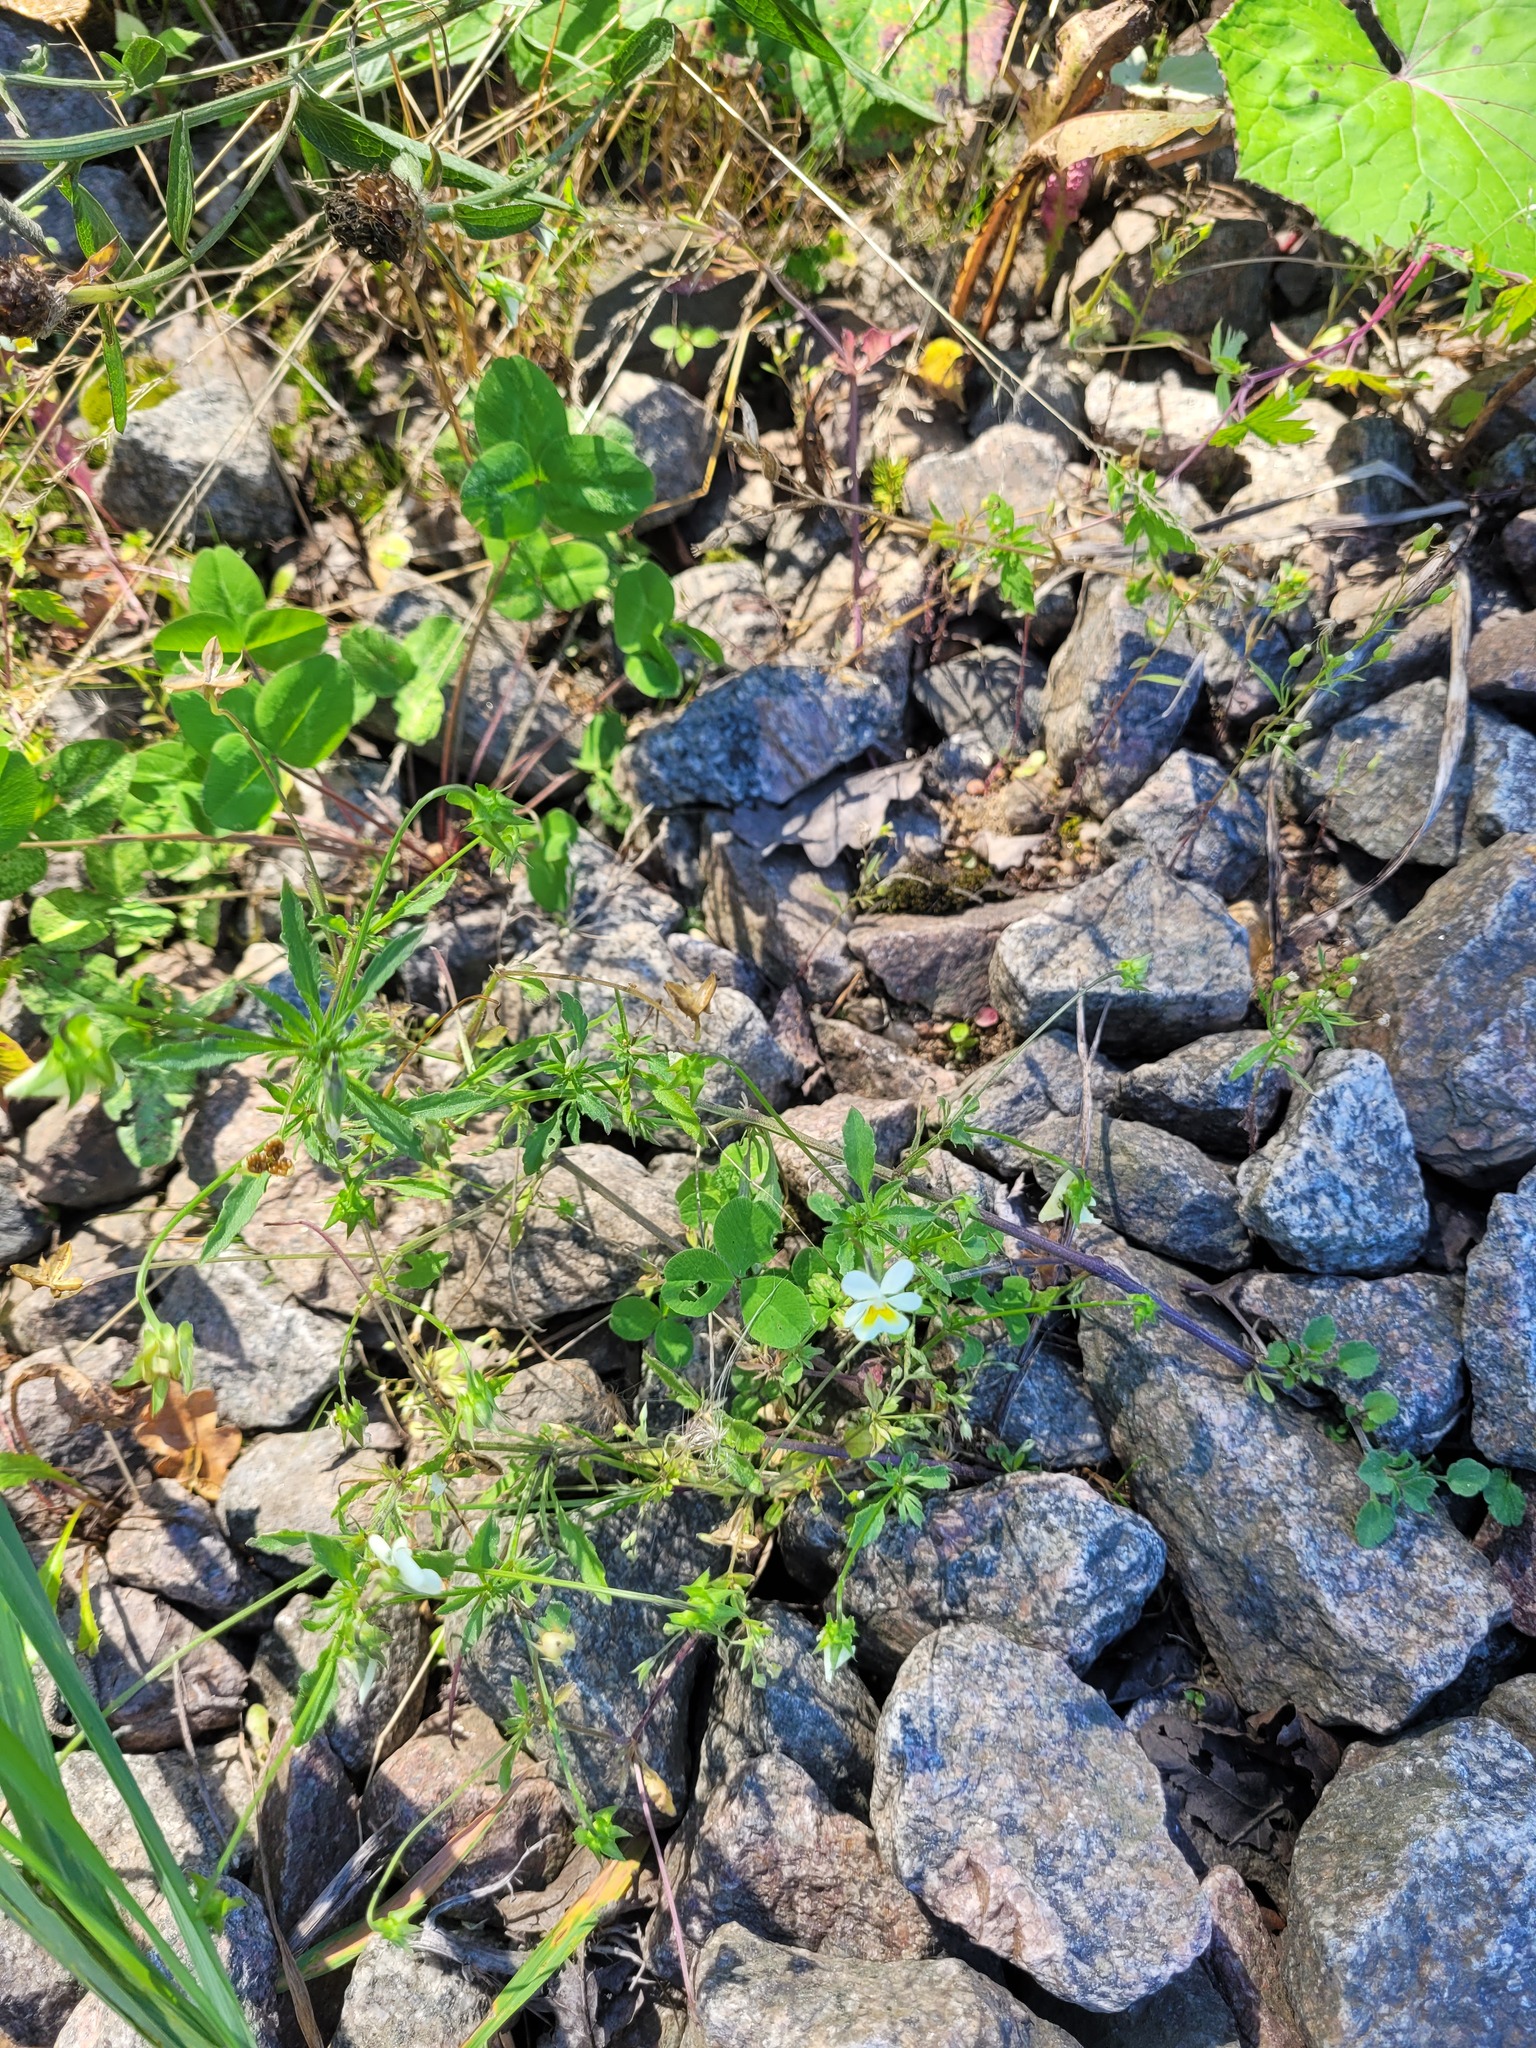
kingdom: Plantae
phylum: Tracheophyta
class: Magnoliopsida
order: Malpighiales
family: Violaceae
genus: Viola
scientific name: Viola arvensis
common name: Field pansy
